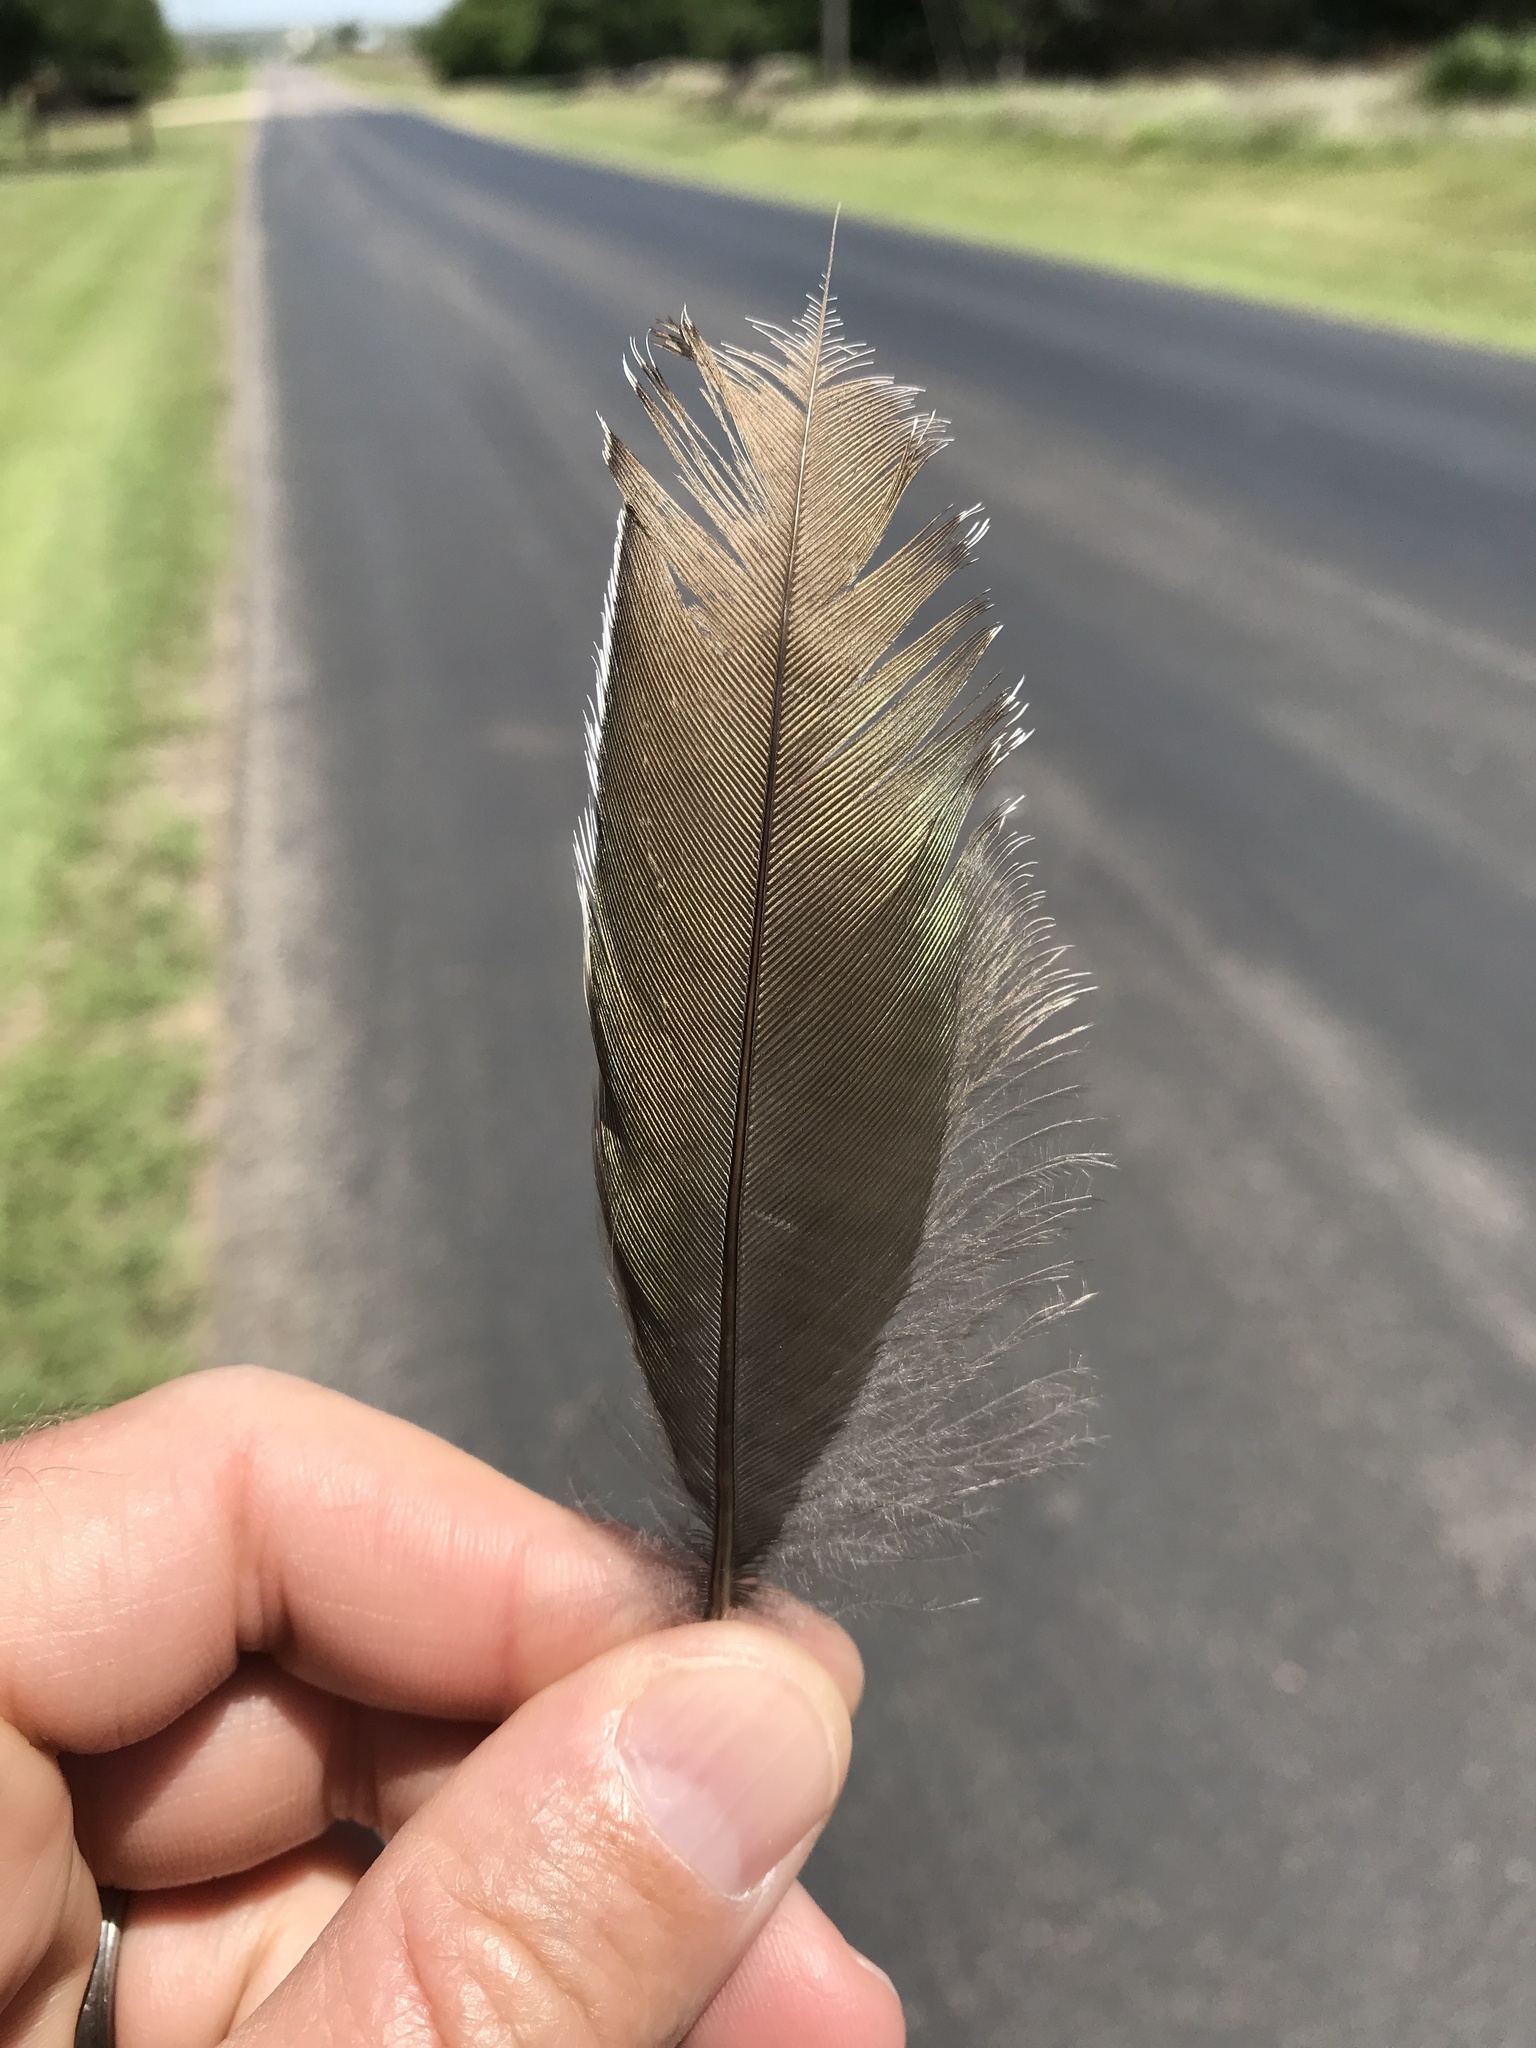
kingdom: Animalia
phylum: Chordata
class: Aves
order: Cuculiformes
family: Cuculidae
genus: Geococcyx
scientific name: Geococcyx californianus
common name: Greater roadrunner
